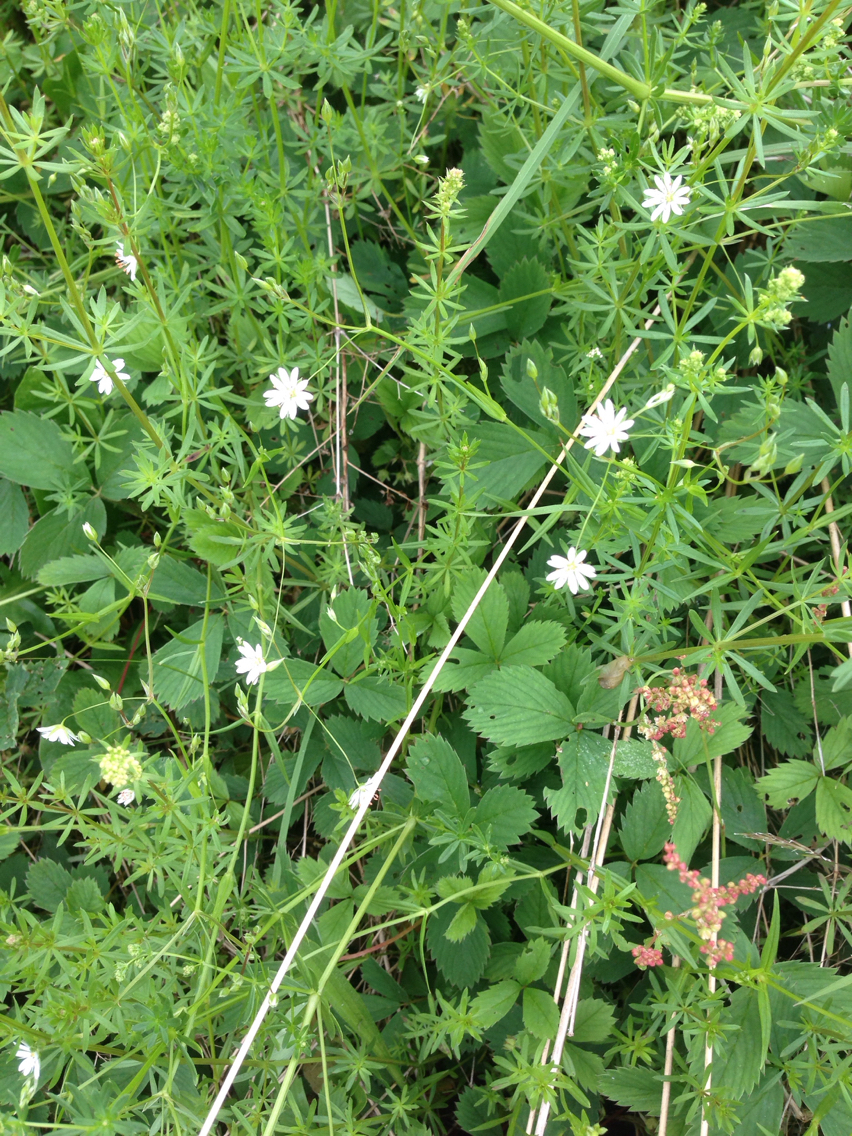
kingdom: Plantae
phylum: Tracheophyta
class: Magnoliopsida
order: Caryophyllales
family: Caryophyllaceae
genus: Stellaria
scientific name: Stellaria graminea
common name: Grass-like starwort
